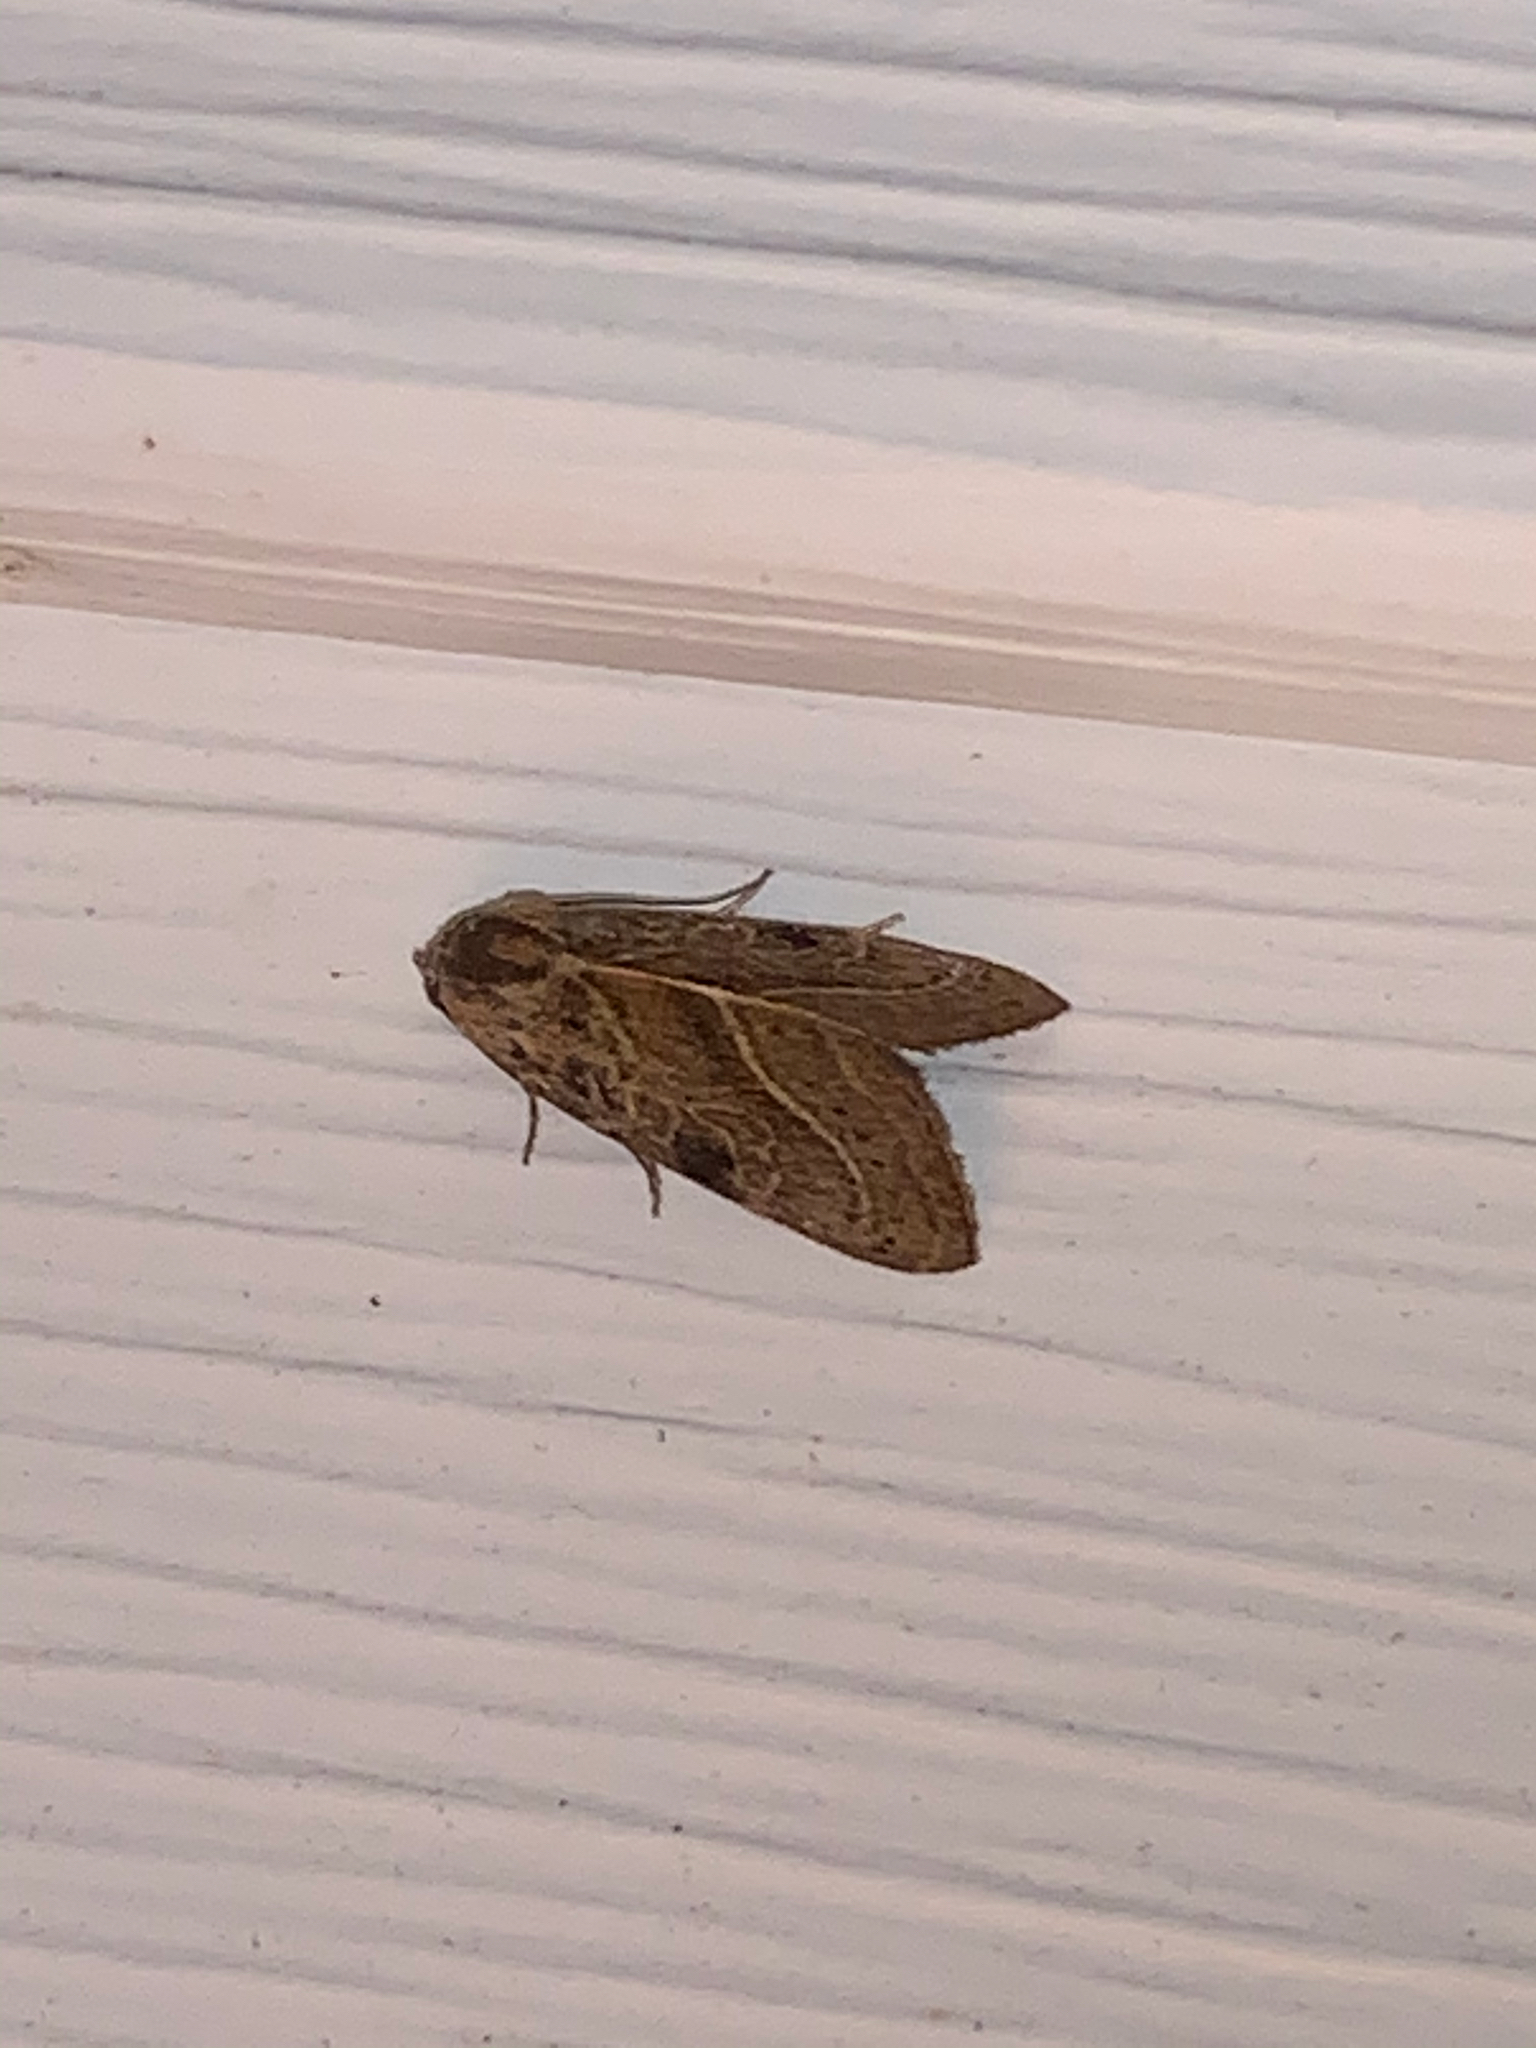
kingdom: Animalia
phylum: Arthropoda
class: Insecta
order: Lepidoptera
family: Noctuidae
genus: Galgula
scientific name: Galgula partita
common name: Wedgeling
